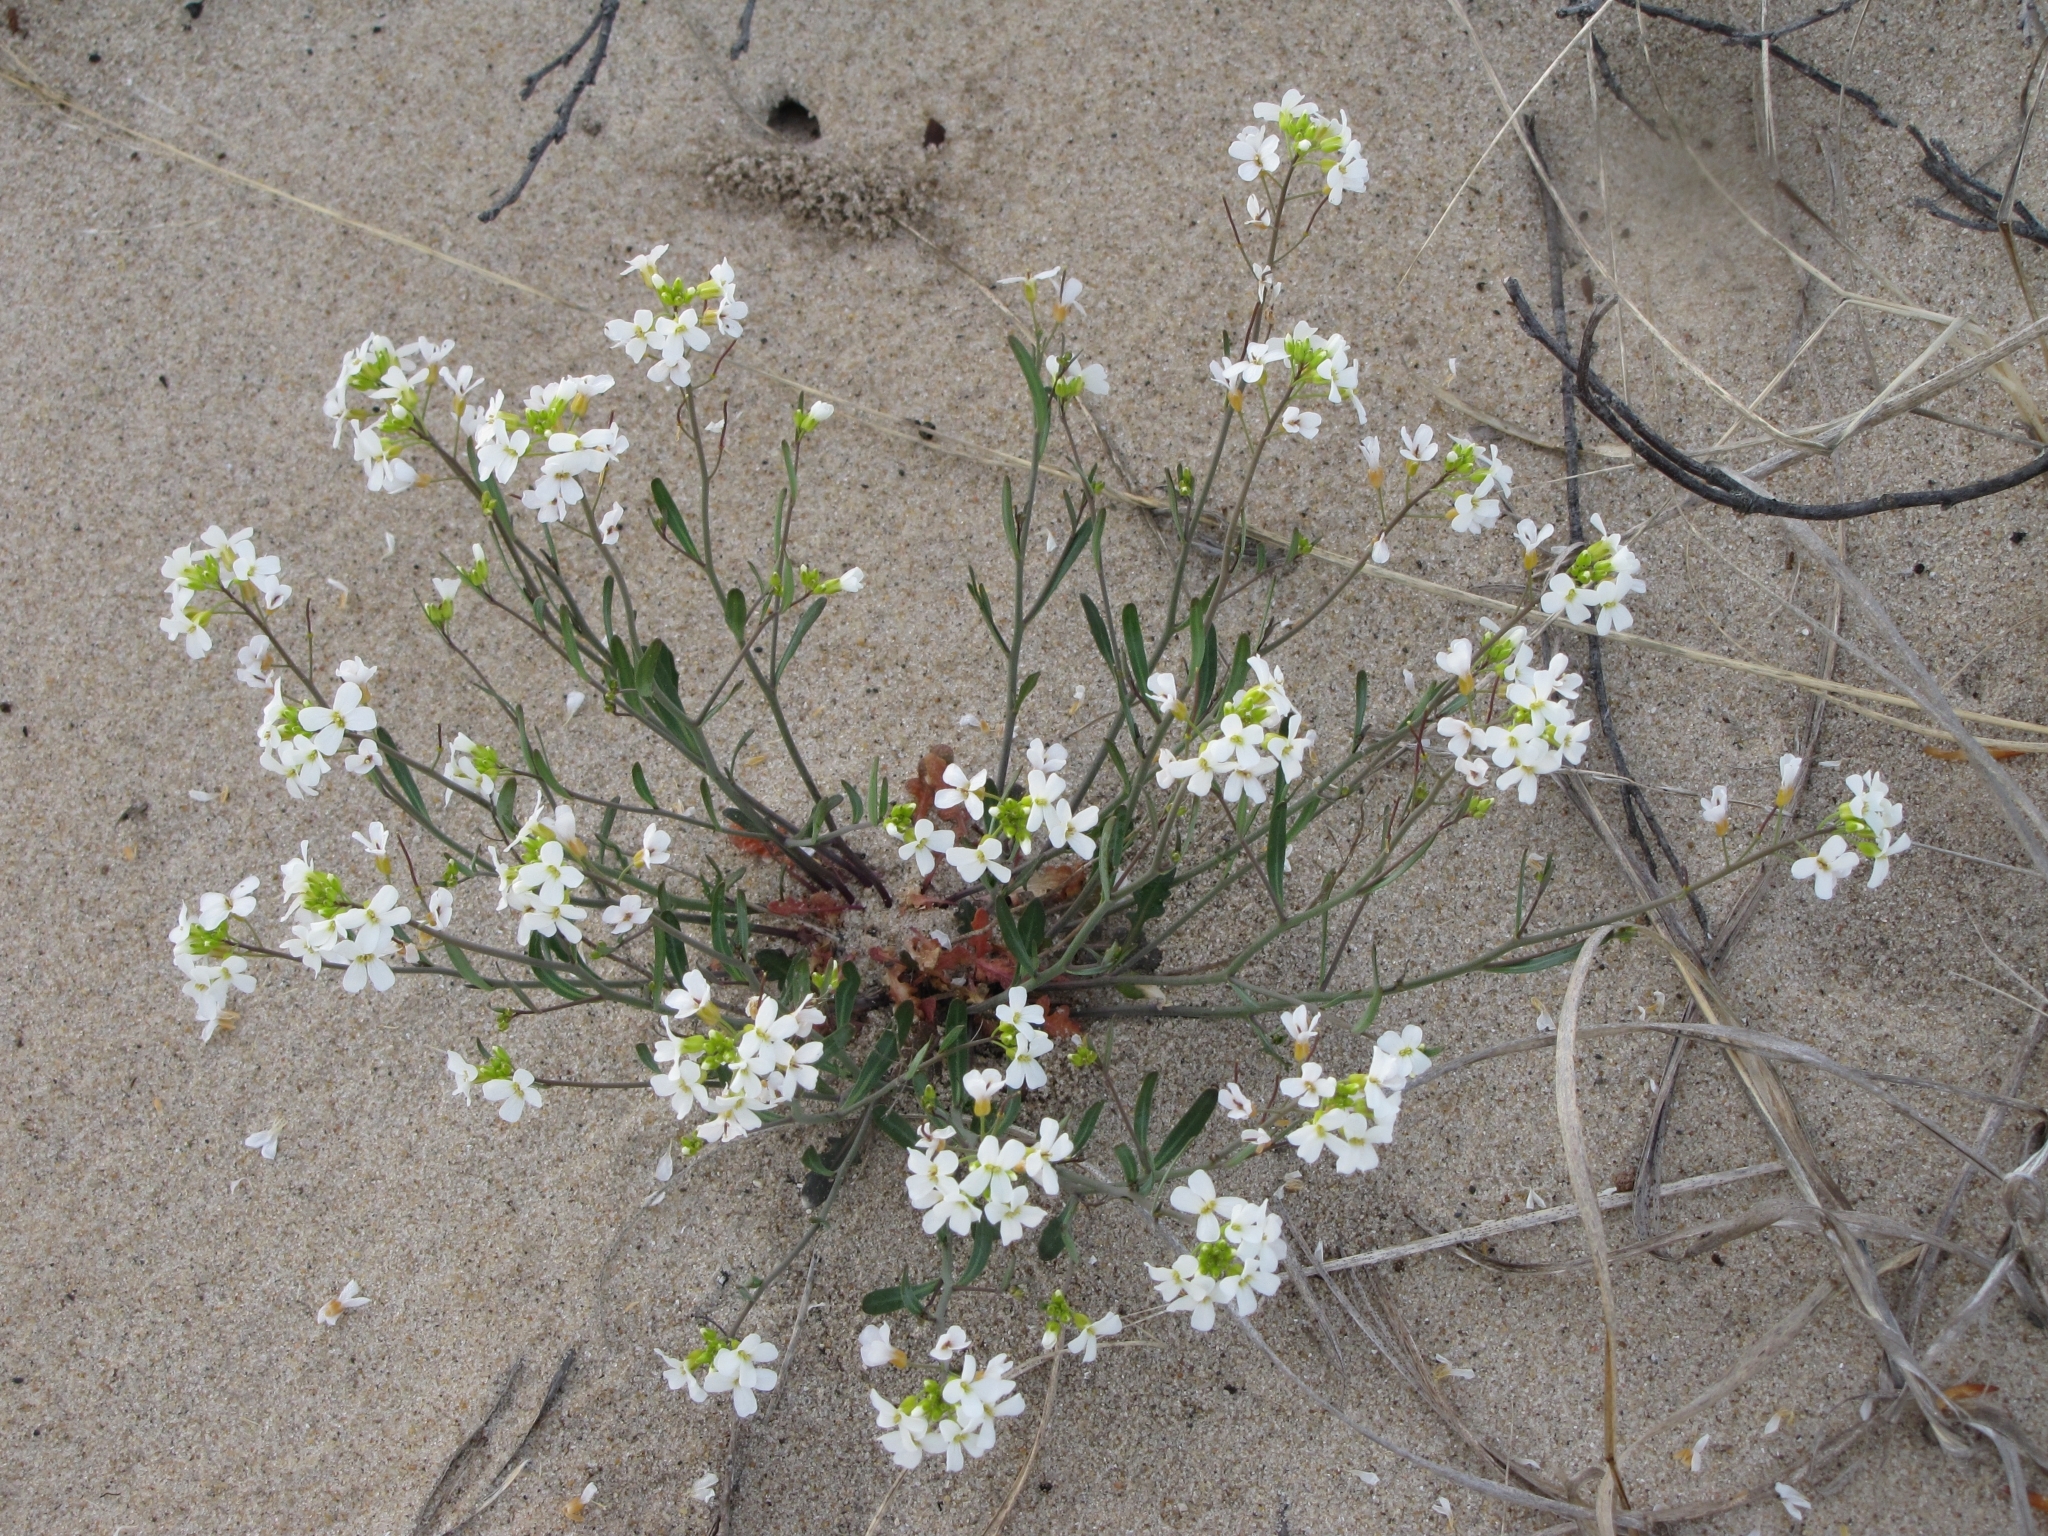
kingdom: Plantae
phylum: Tracheophyta
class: Magnoliopsida
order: Brassicales
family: Brassicaceae
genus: Arabidopsis
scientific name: Arabidopsis lyrata
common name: Lyrate rockcress
